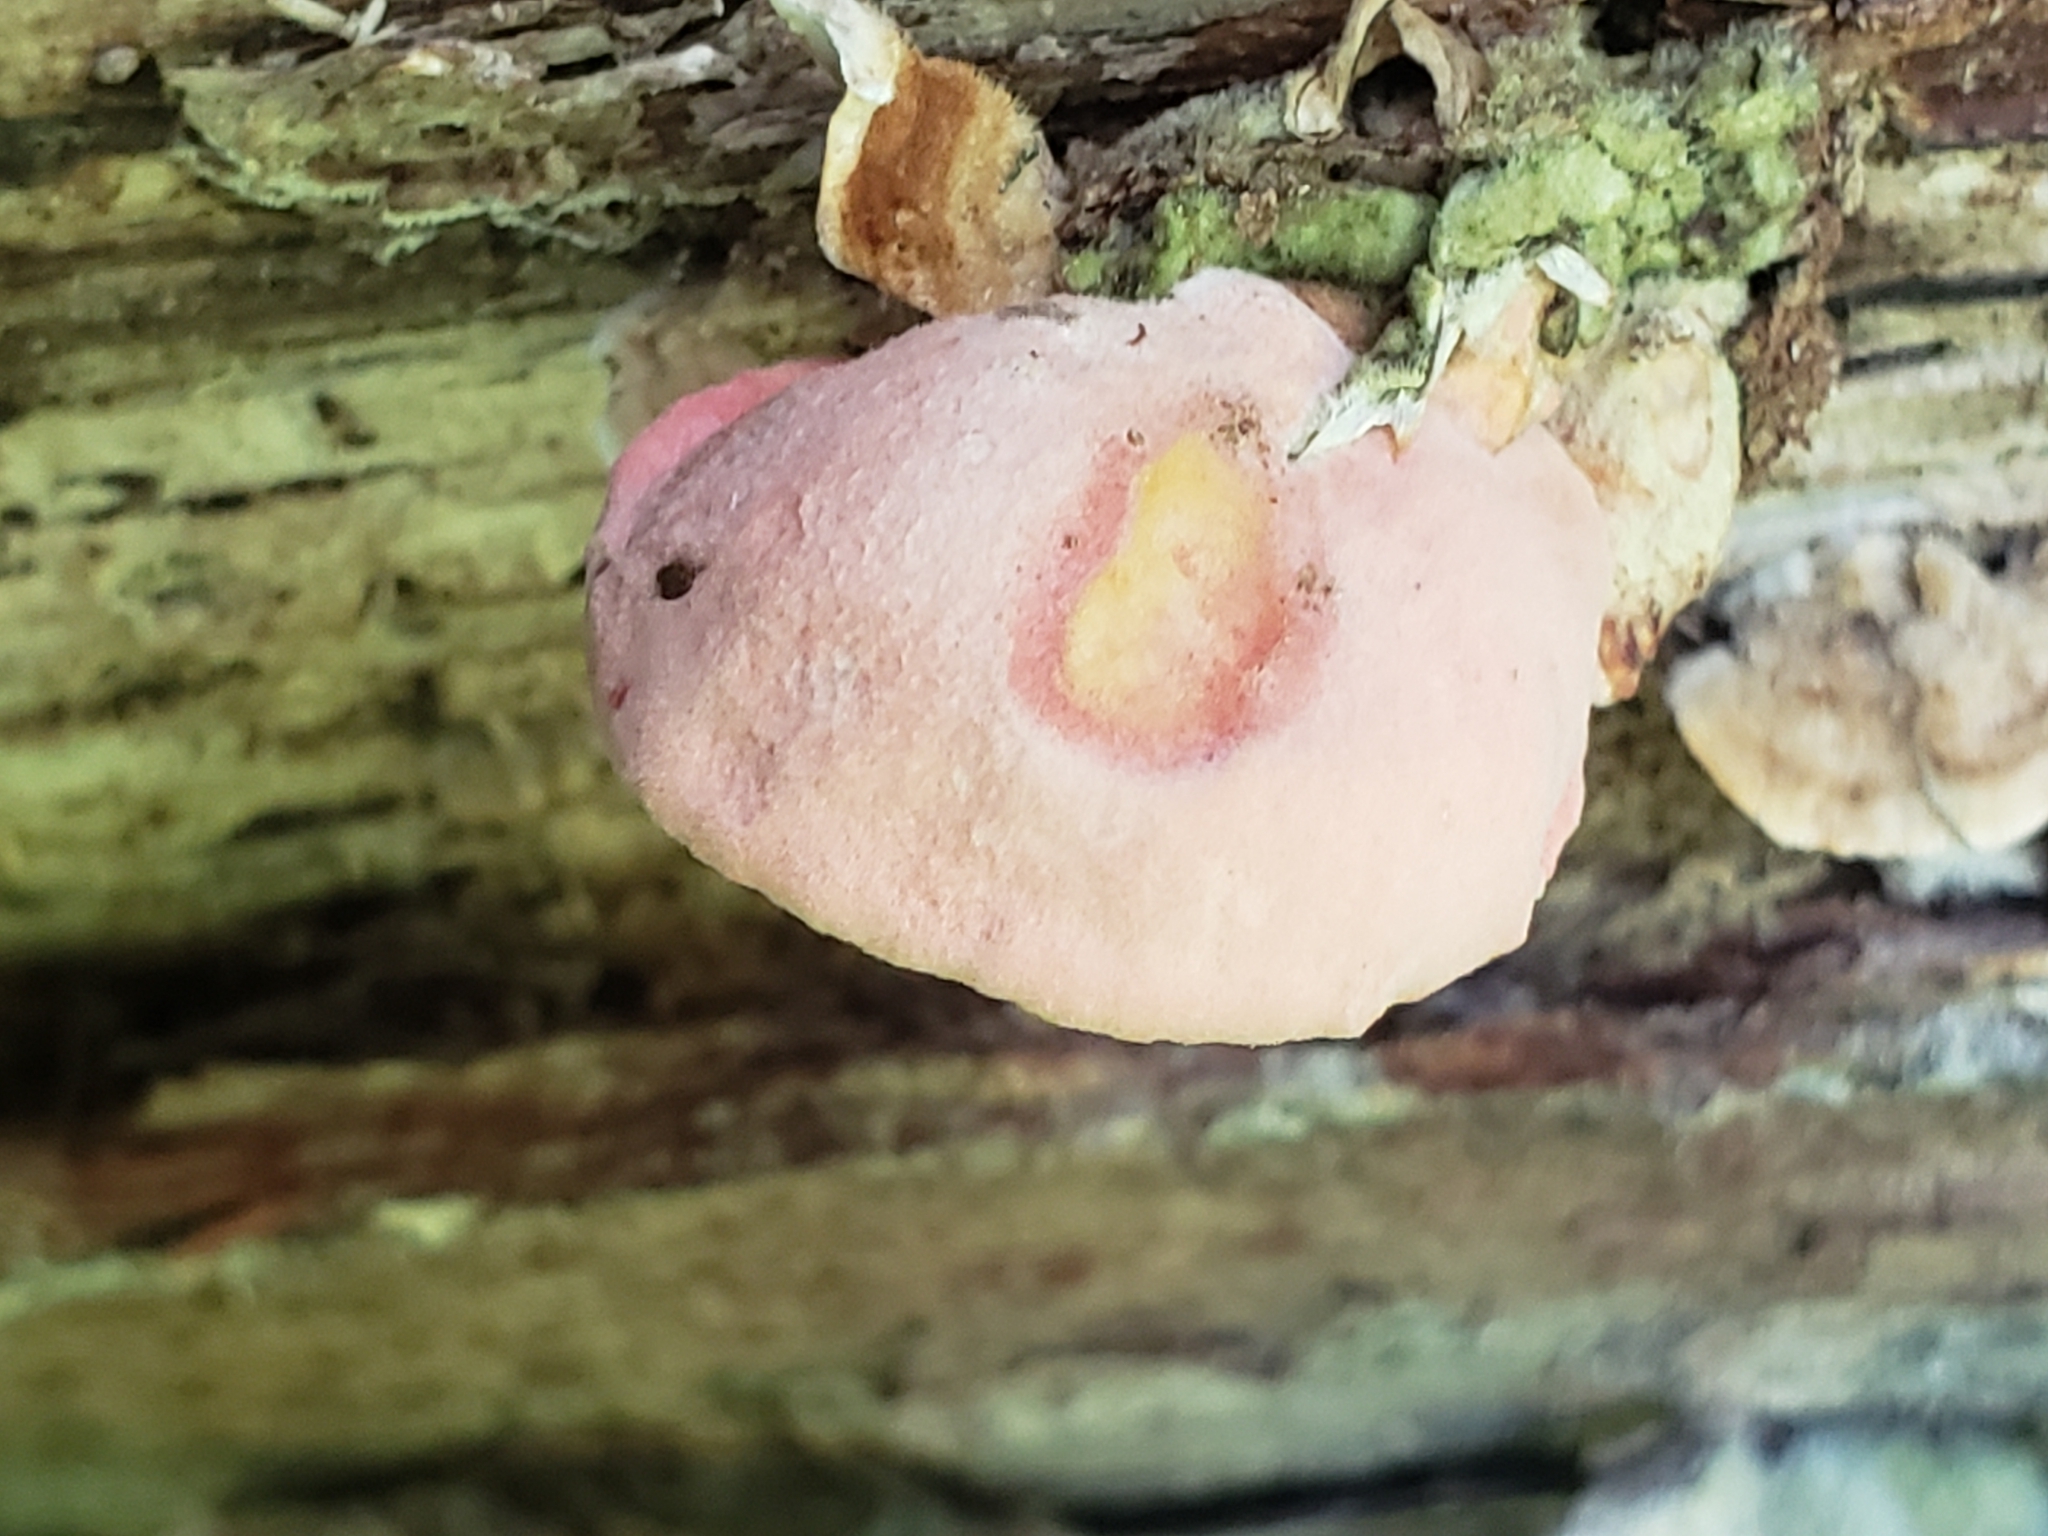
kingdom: Fungi
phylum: Basidiomycota
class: Agaricomycetes
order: Polyporales
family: Irpicaceae
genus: Byssomerulius
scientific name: Byssomerulius incarnatus
